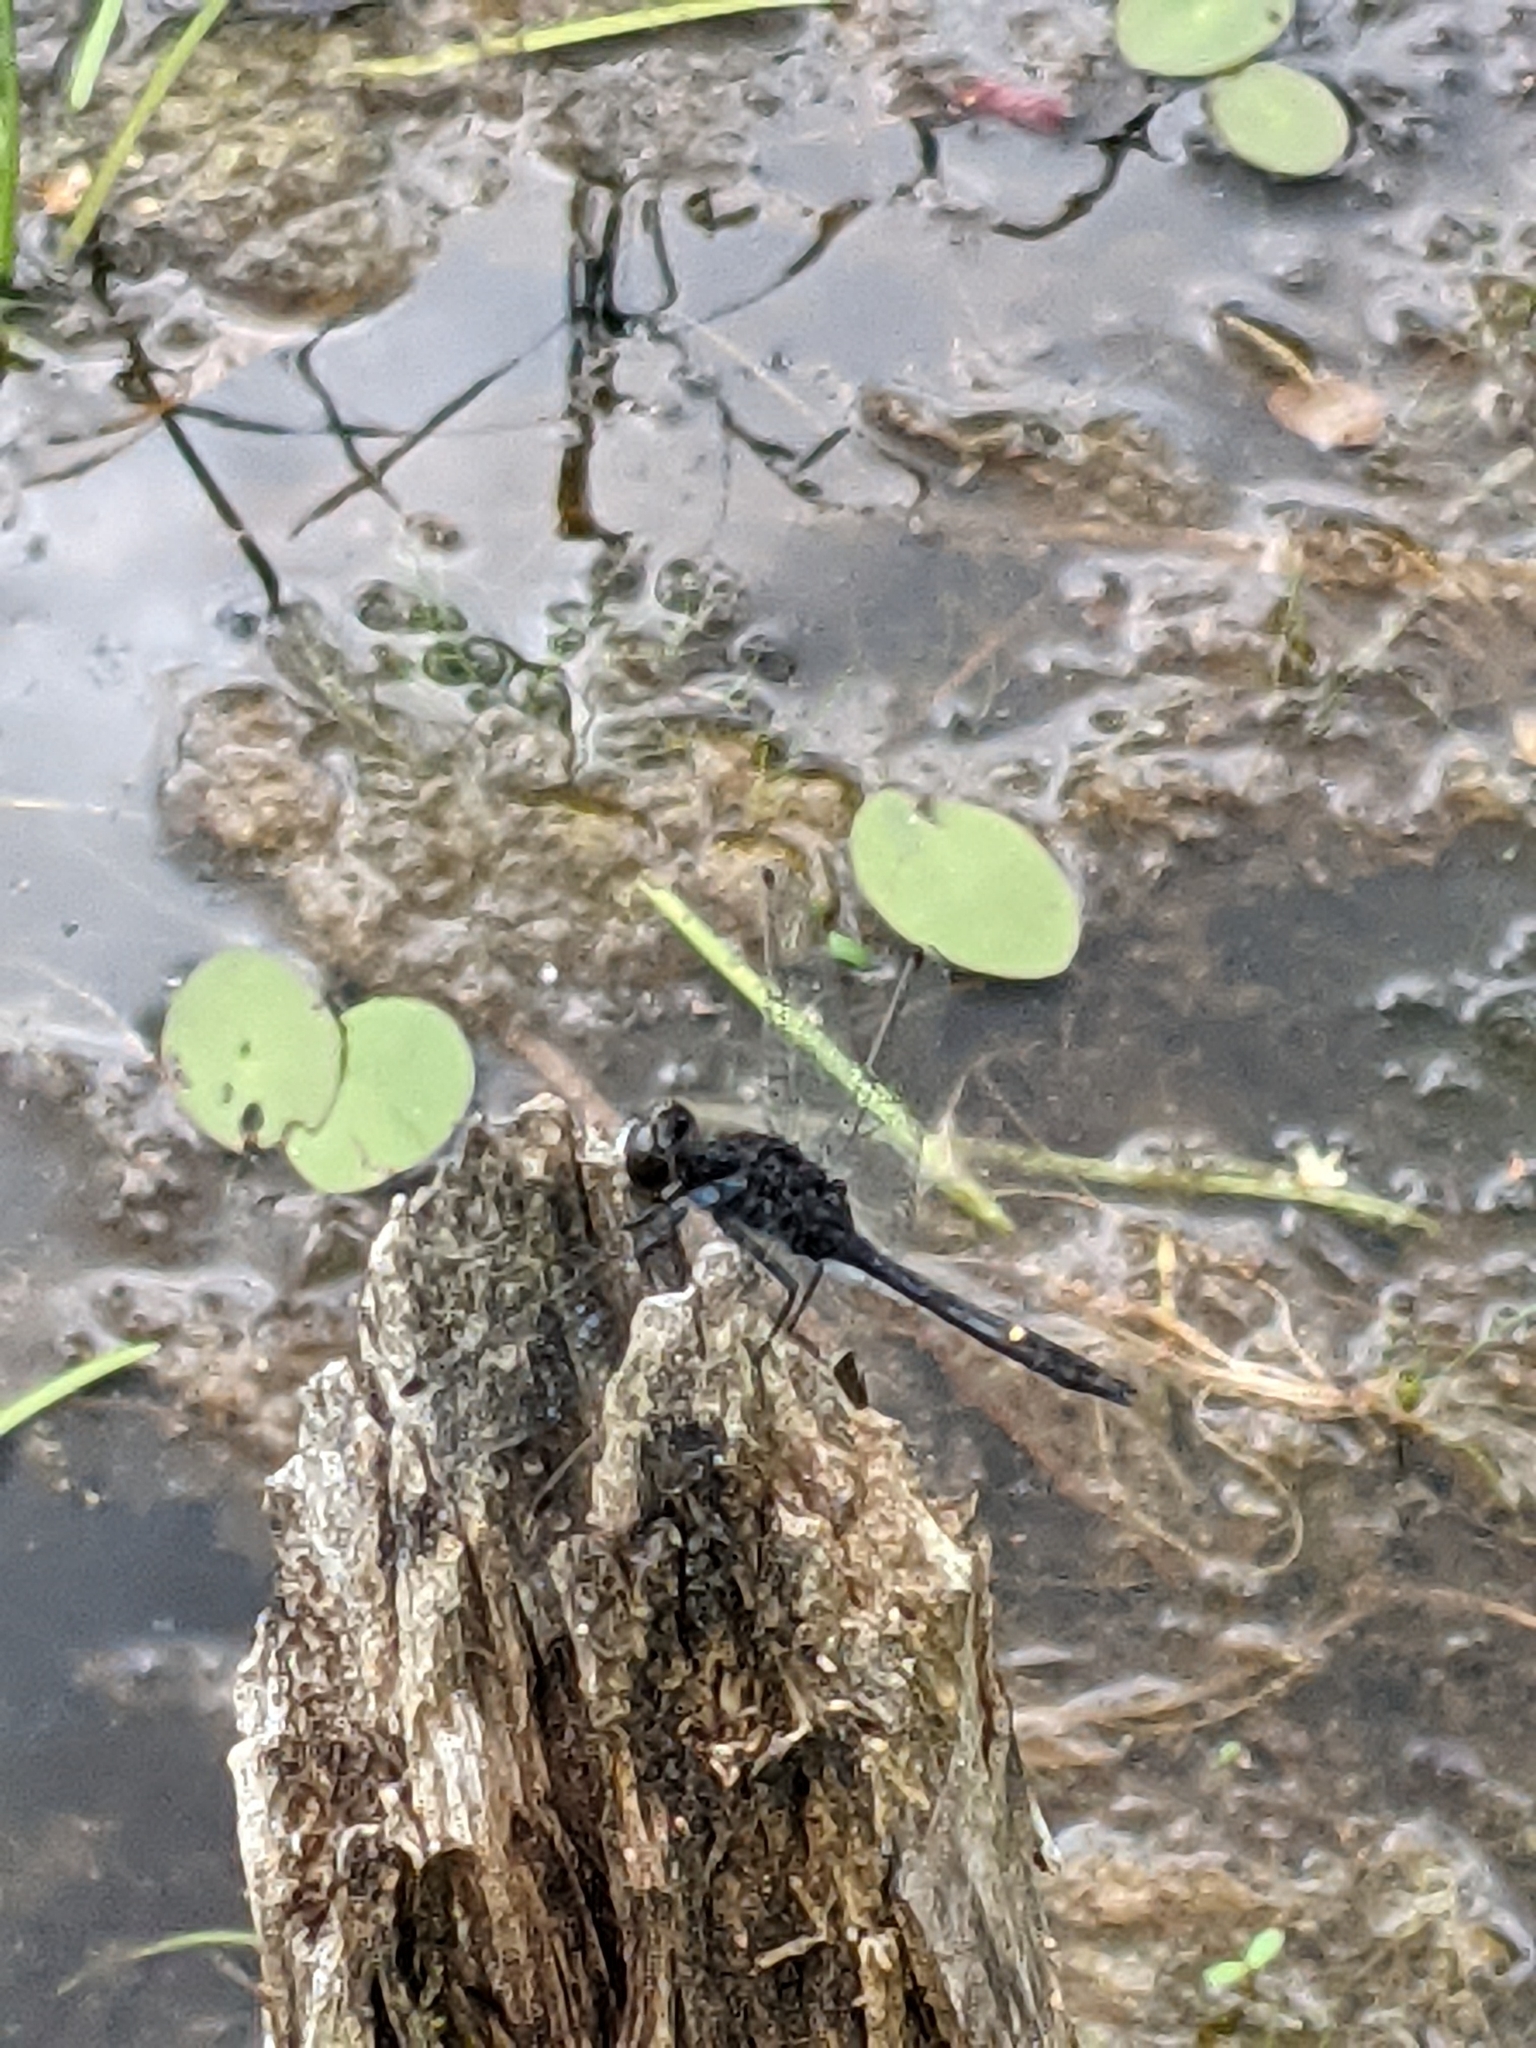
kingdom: Animalia
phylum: Arthropoda
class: Insecta
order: Odonata
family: Libellulidae
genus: Leucorrhinia
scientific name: Leucorrhinia intacta
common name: Dot-tailed whiteface
